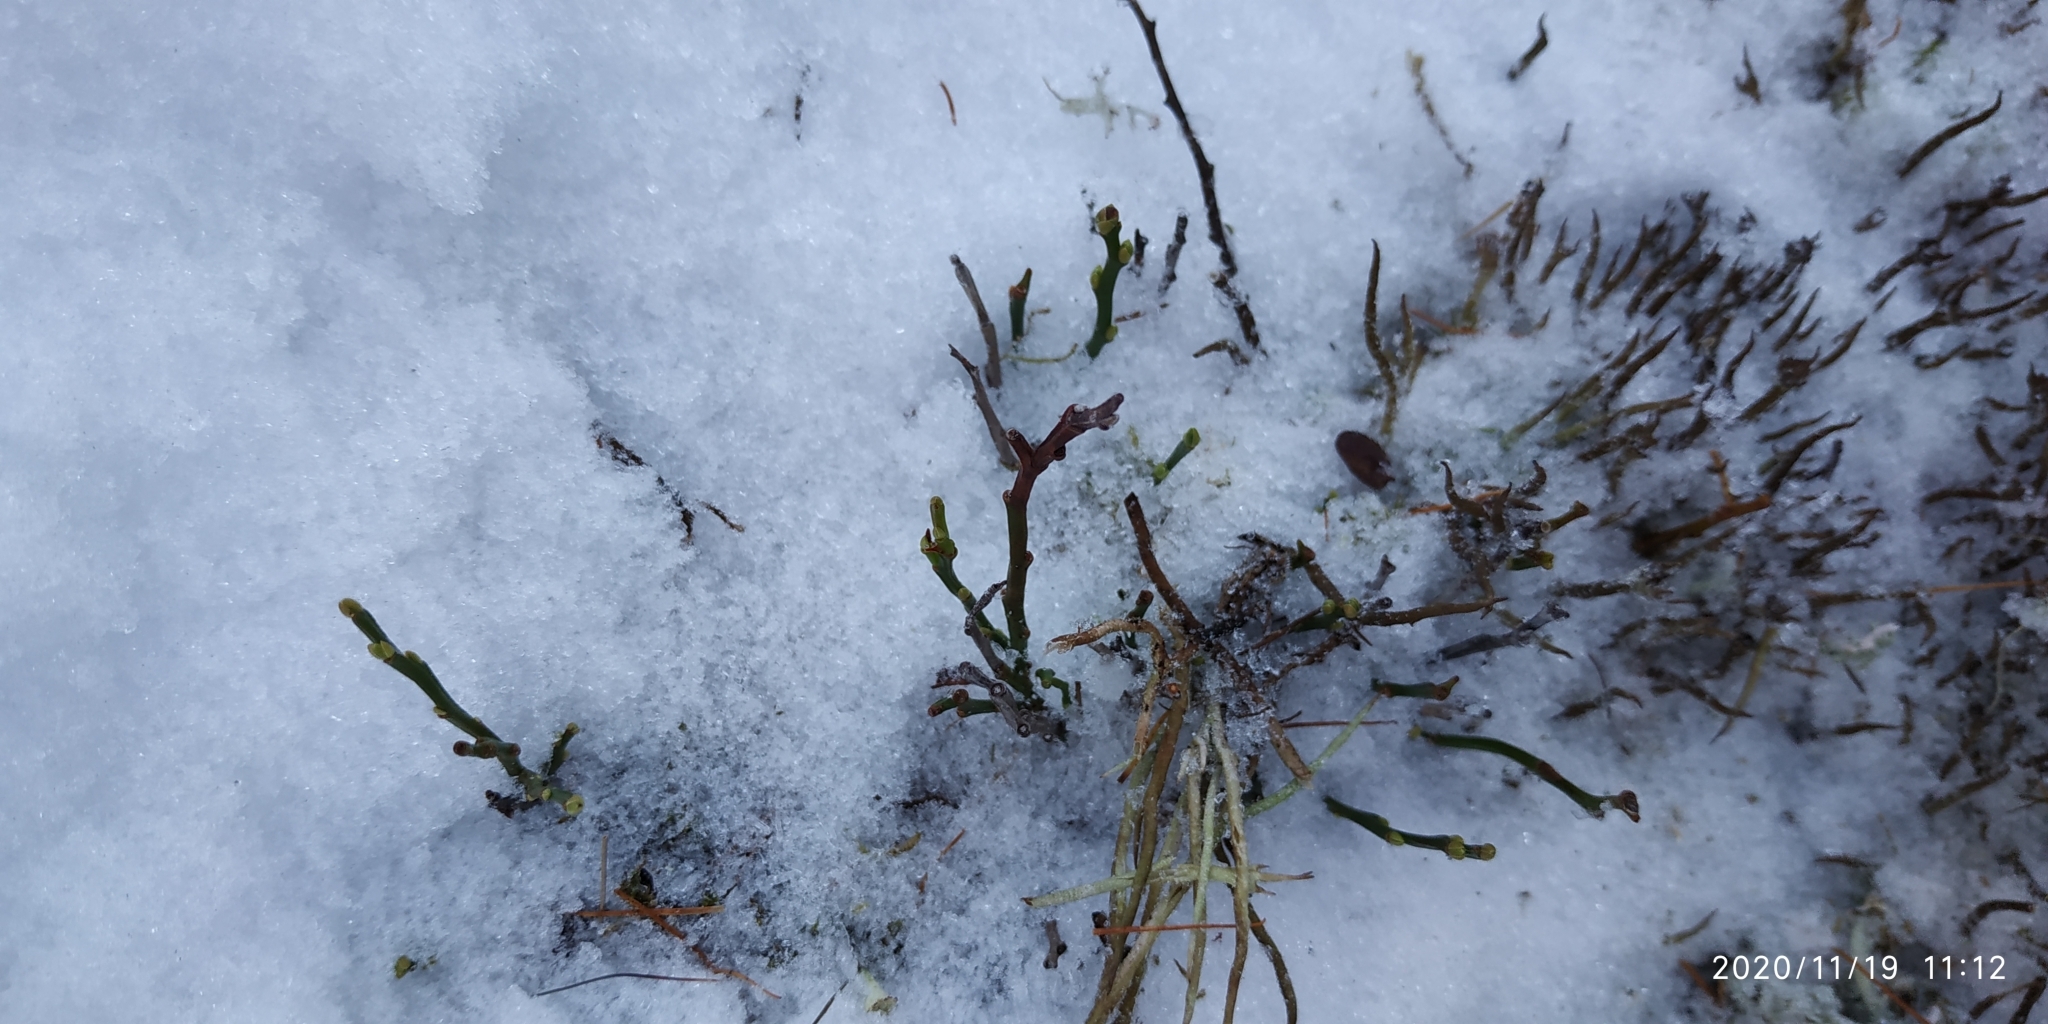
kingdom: Plantae
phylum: Tracheophyta
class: Magnoliopsida
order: Ericales
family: Ericaceae
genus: Vaccinium
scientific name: Vaccinium myrtillus
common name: Bilberry
